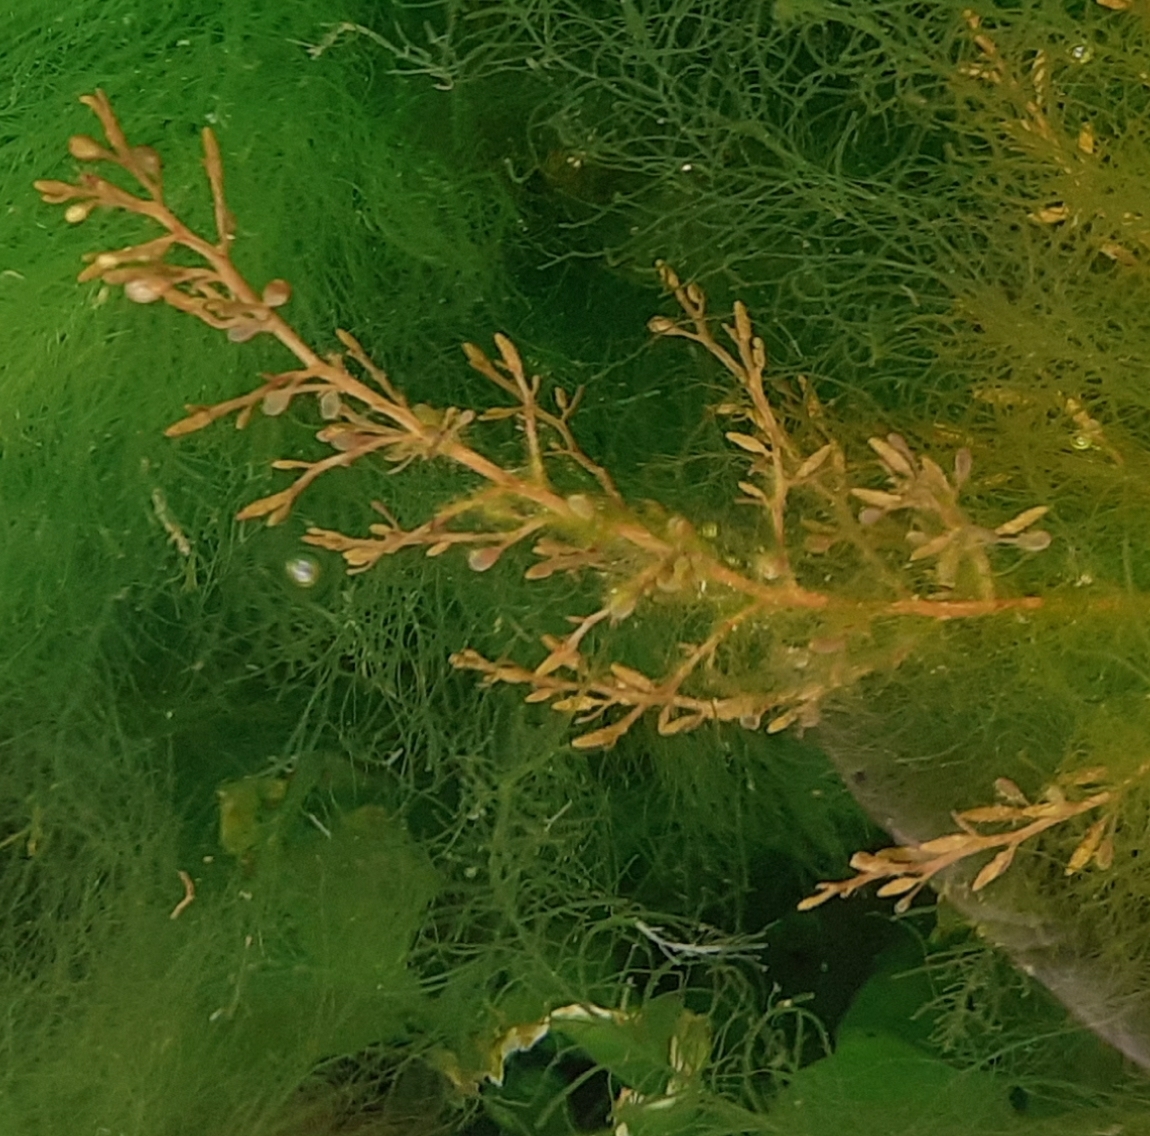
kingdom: Chromista
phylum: Ochrophyta
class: Phaeophyceae
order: Fucales
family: Sargassaceae
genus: Sargassum
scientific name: Sargassum muticum
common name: Japweed
